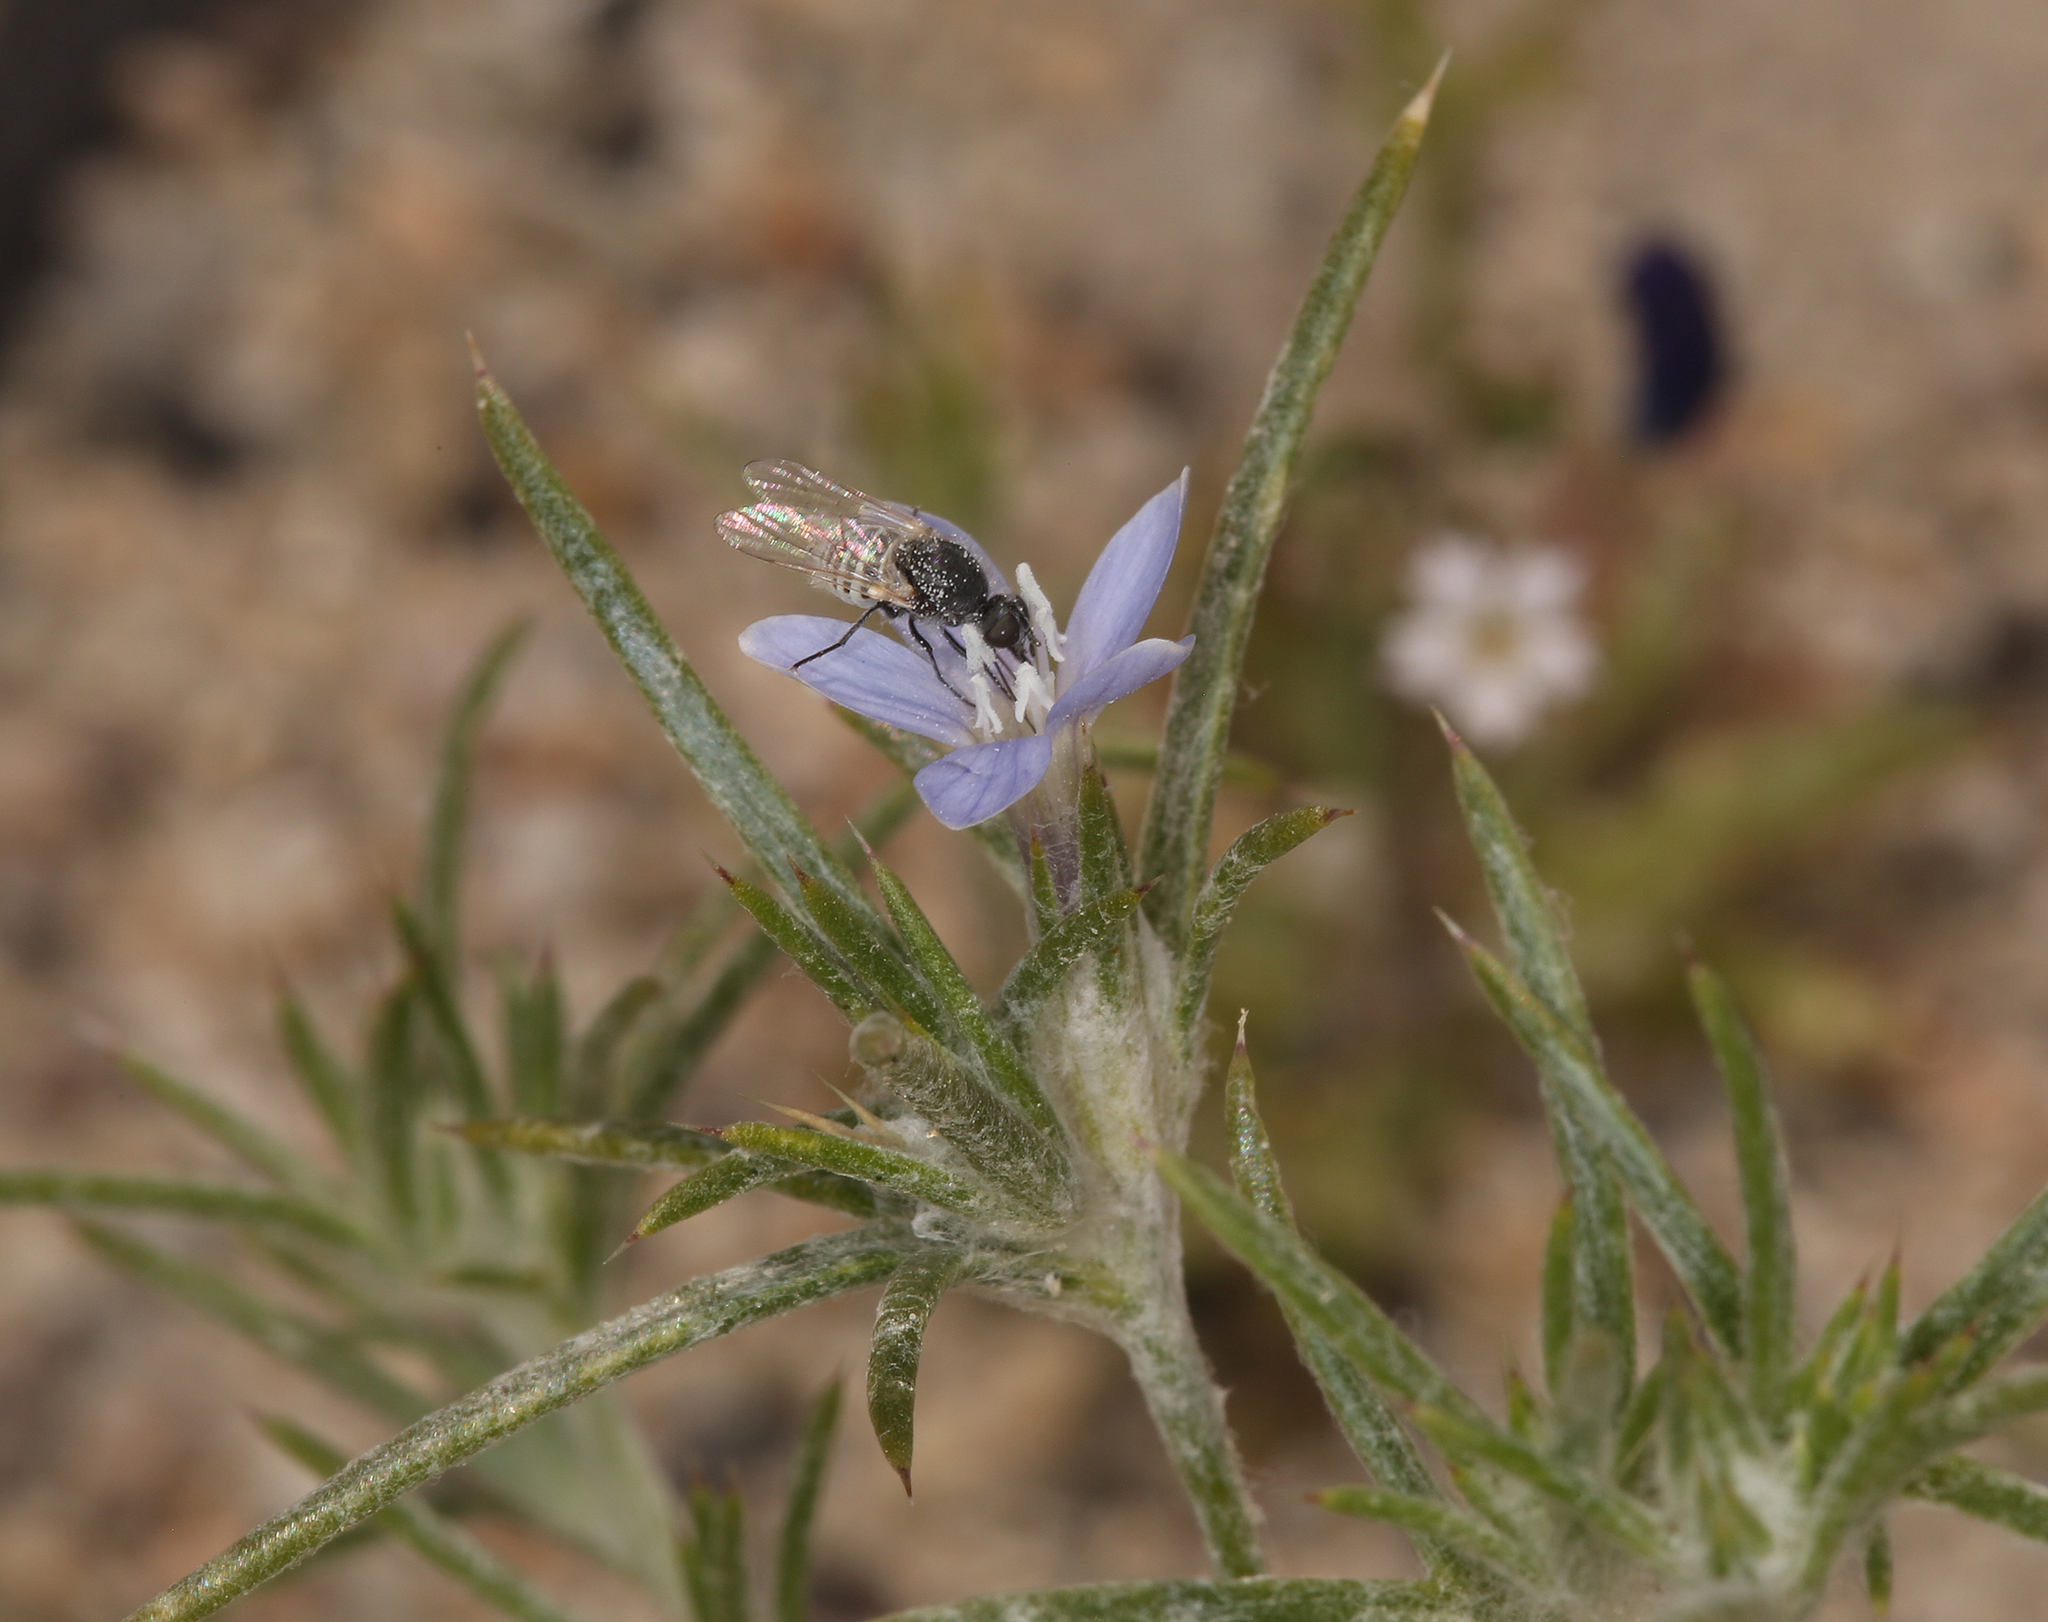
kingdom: Plantae
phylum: Tracheophyta
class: Magnoliopsida
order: Ericales
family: Polemoniaceae
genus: Eriastrum
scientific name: Eriastrum wilcoxii
